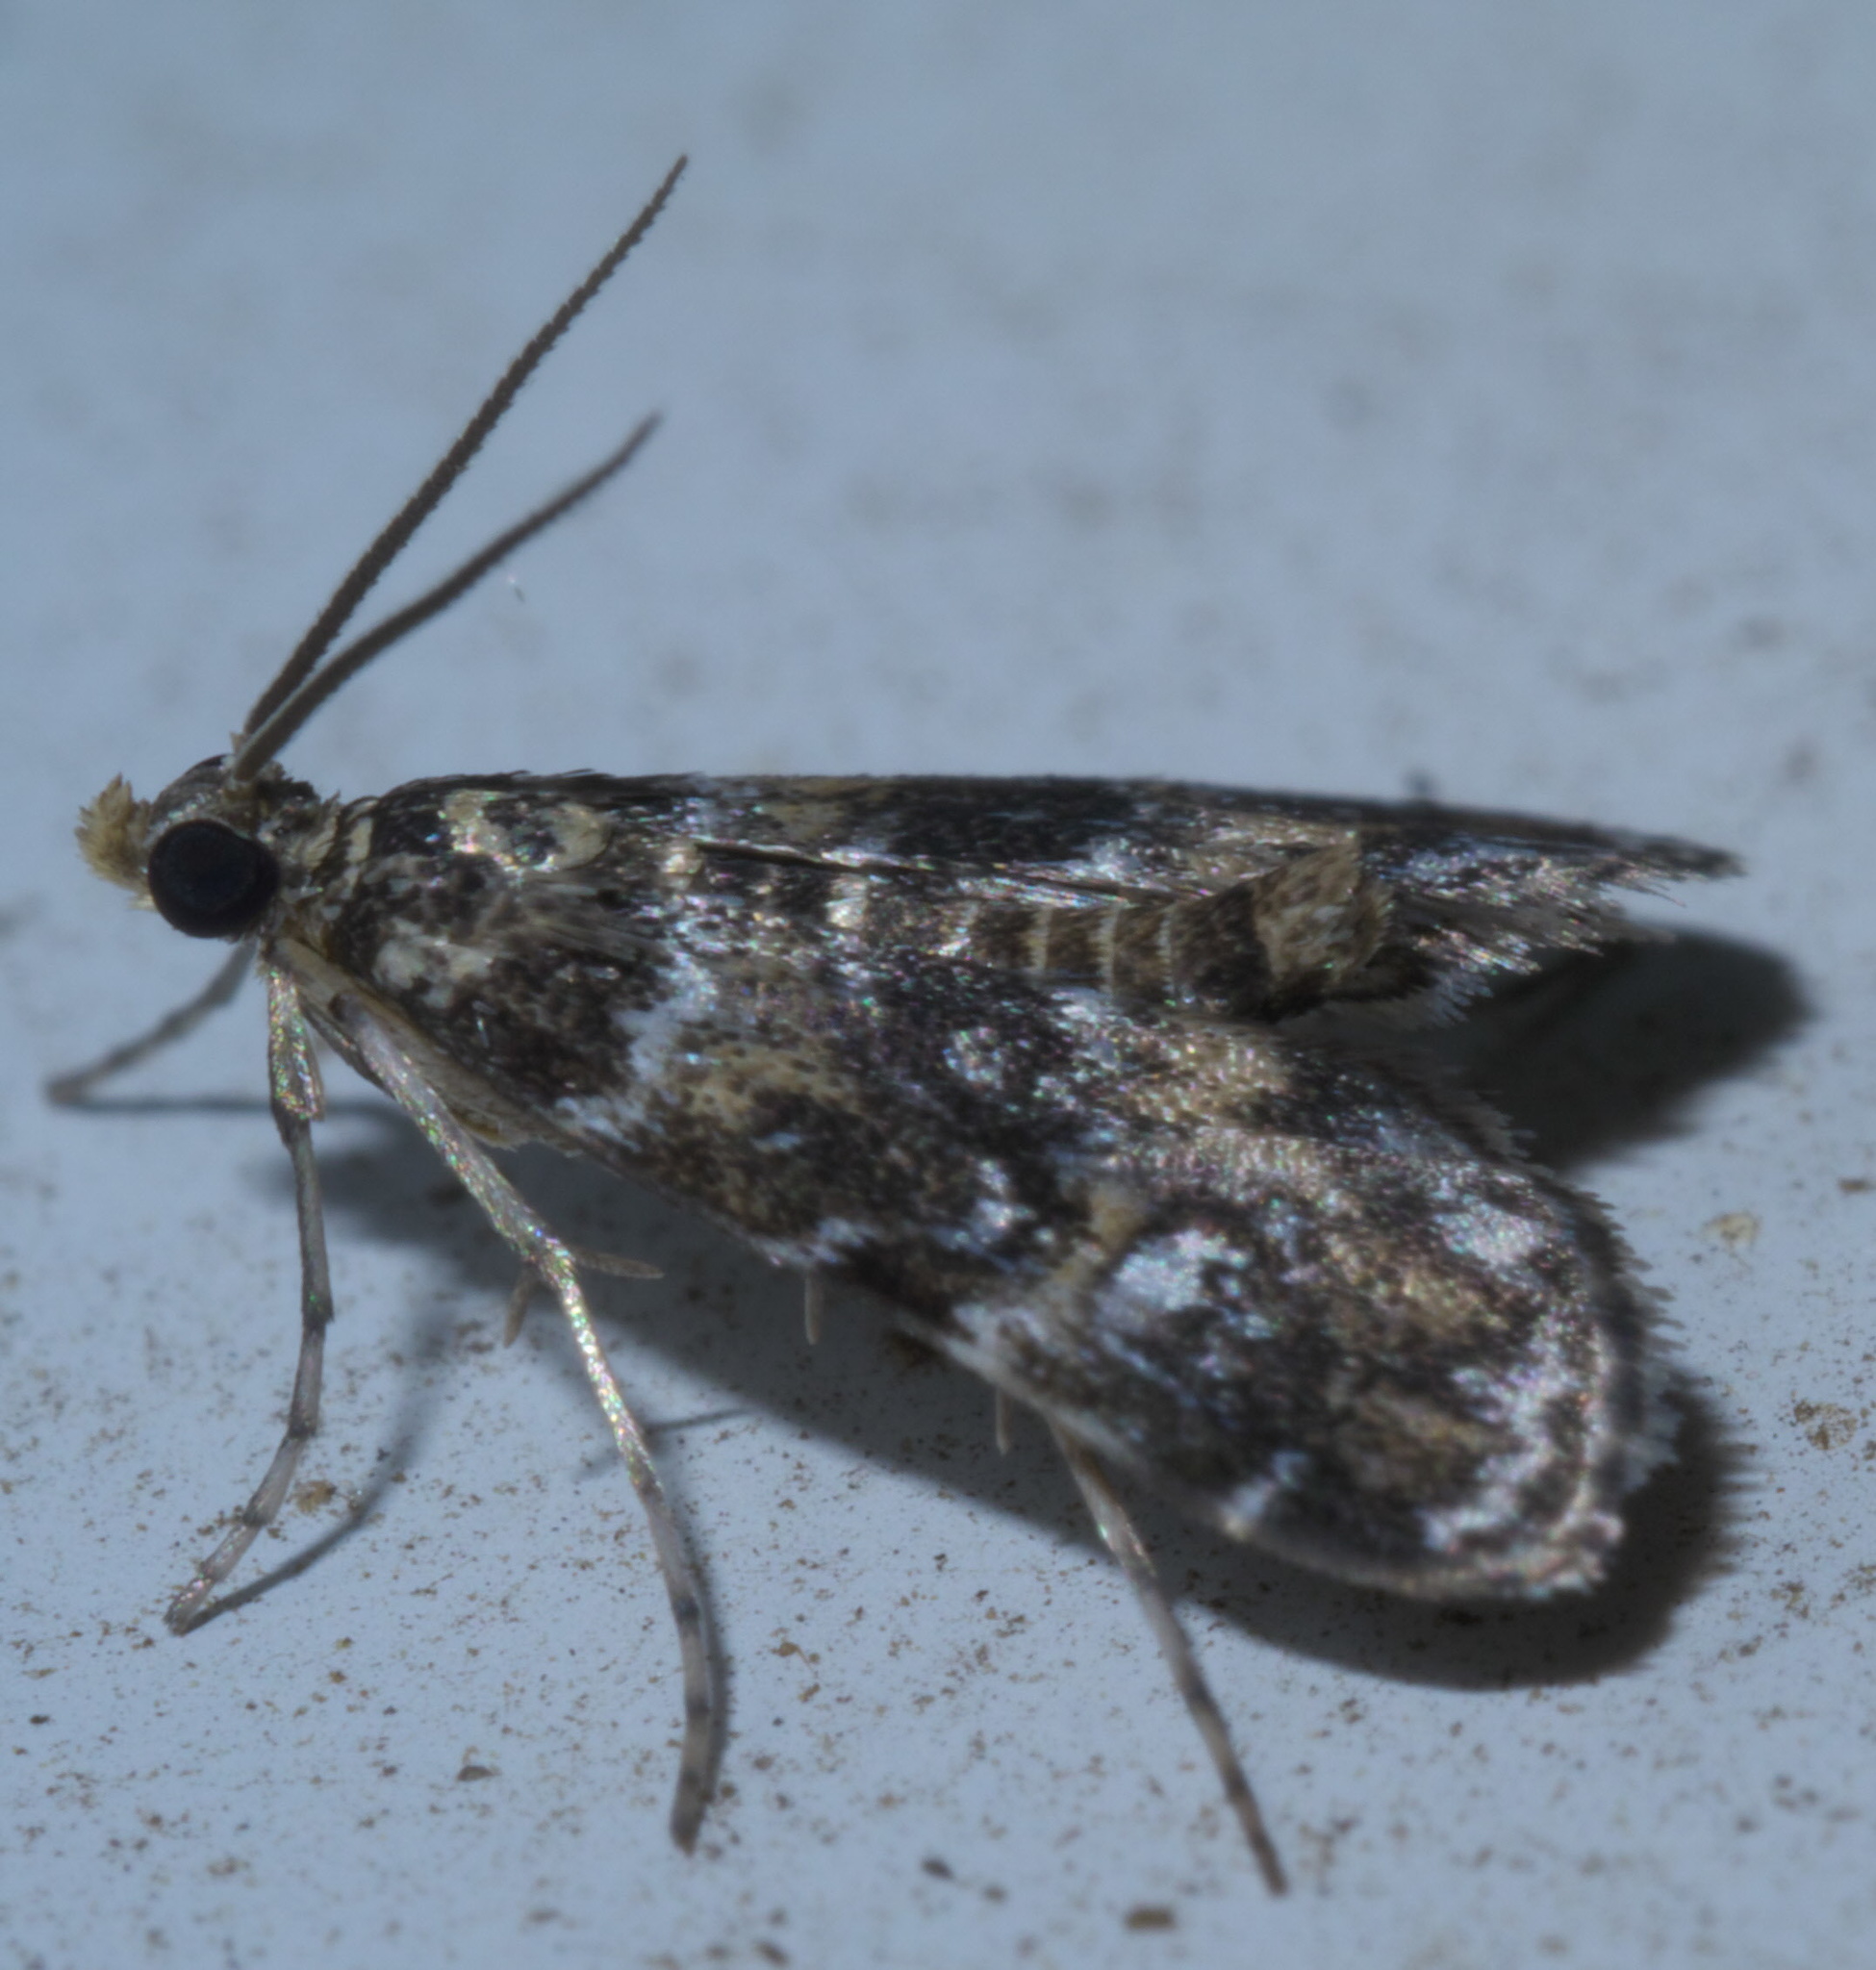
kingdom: Animalia
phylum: Arthropoda
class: Insecta
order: Lepidoptera
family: Crambidae
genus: Elophila
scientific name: Elophila obliteralis
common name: Waterlily leafcutter moth
